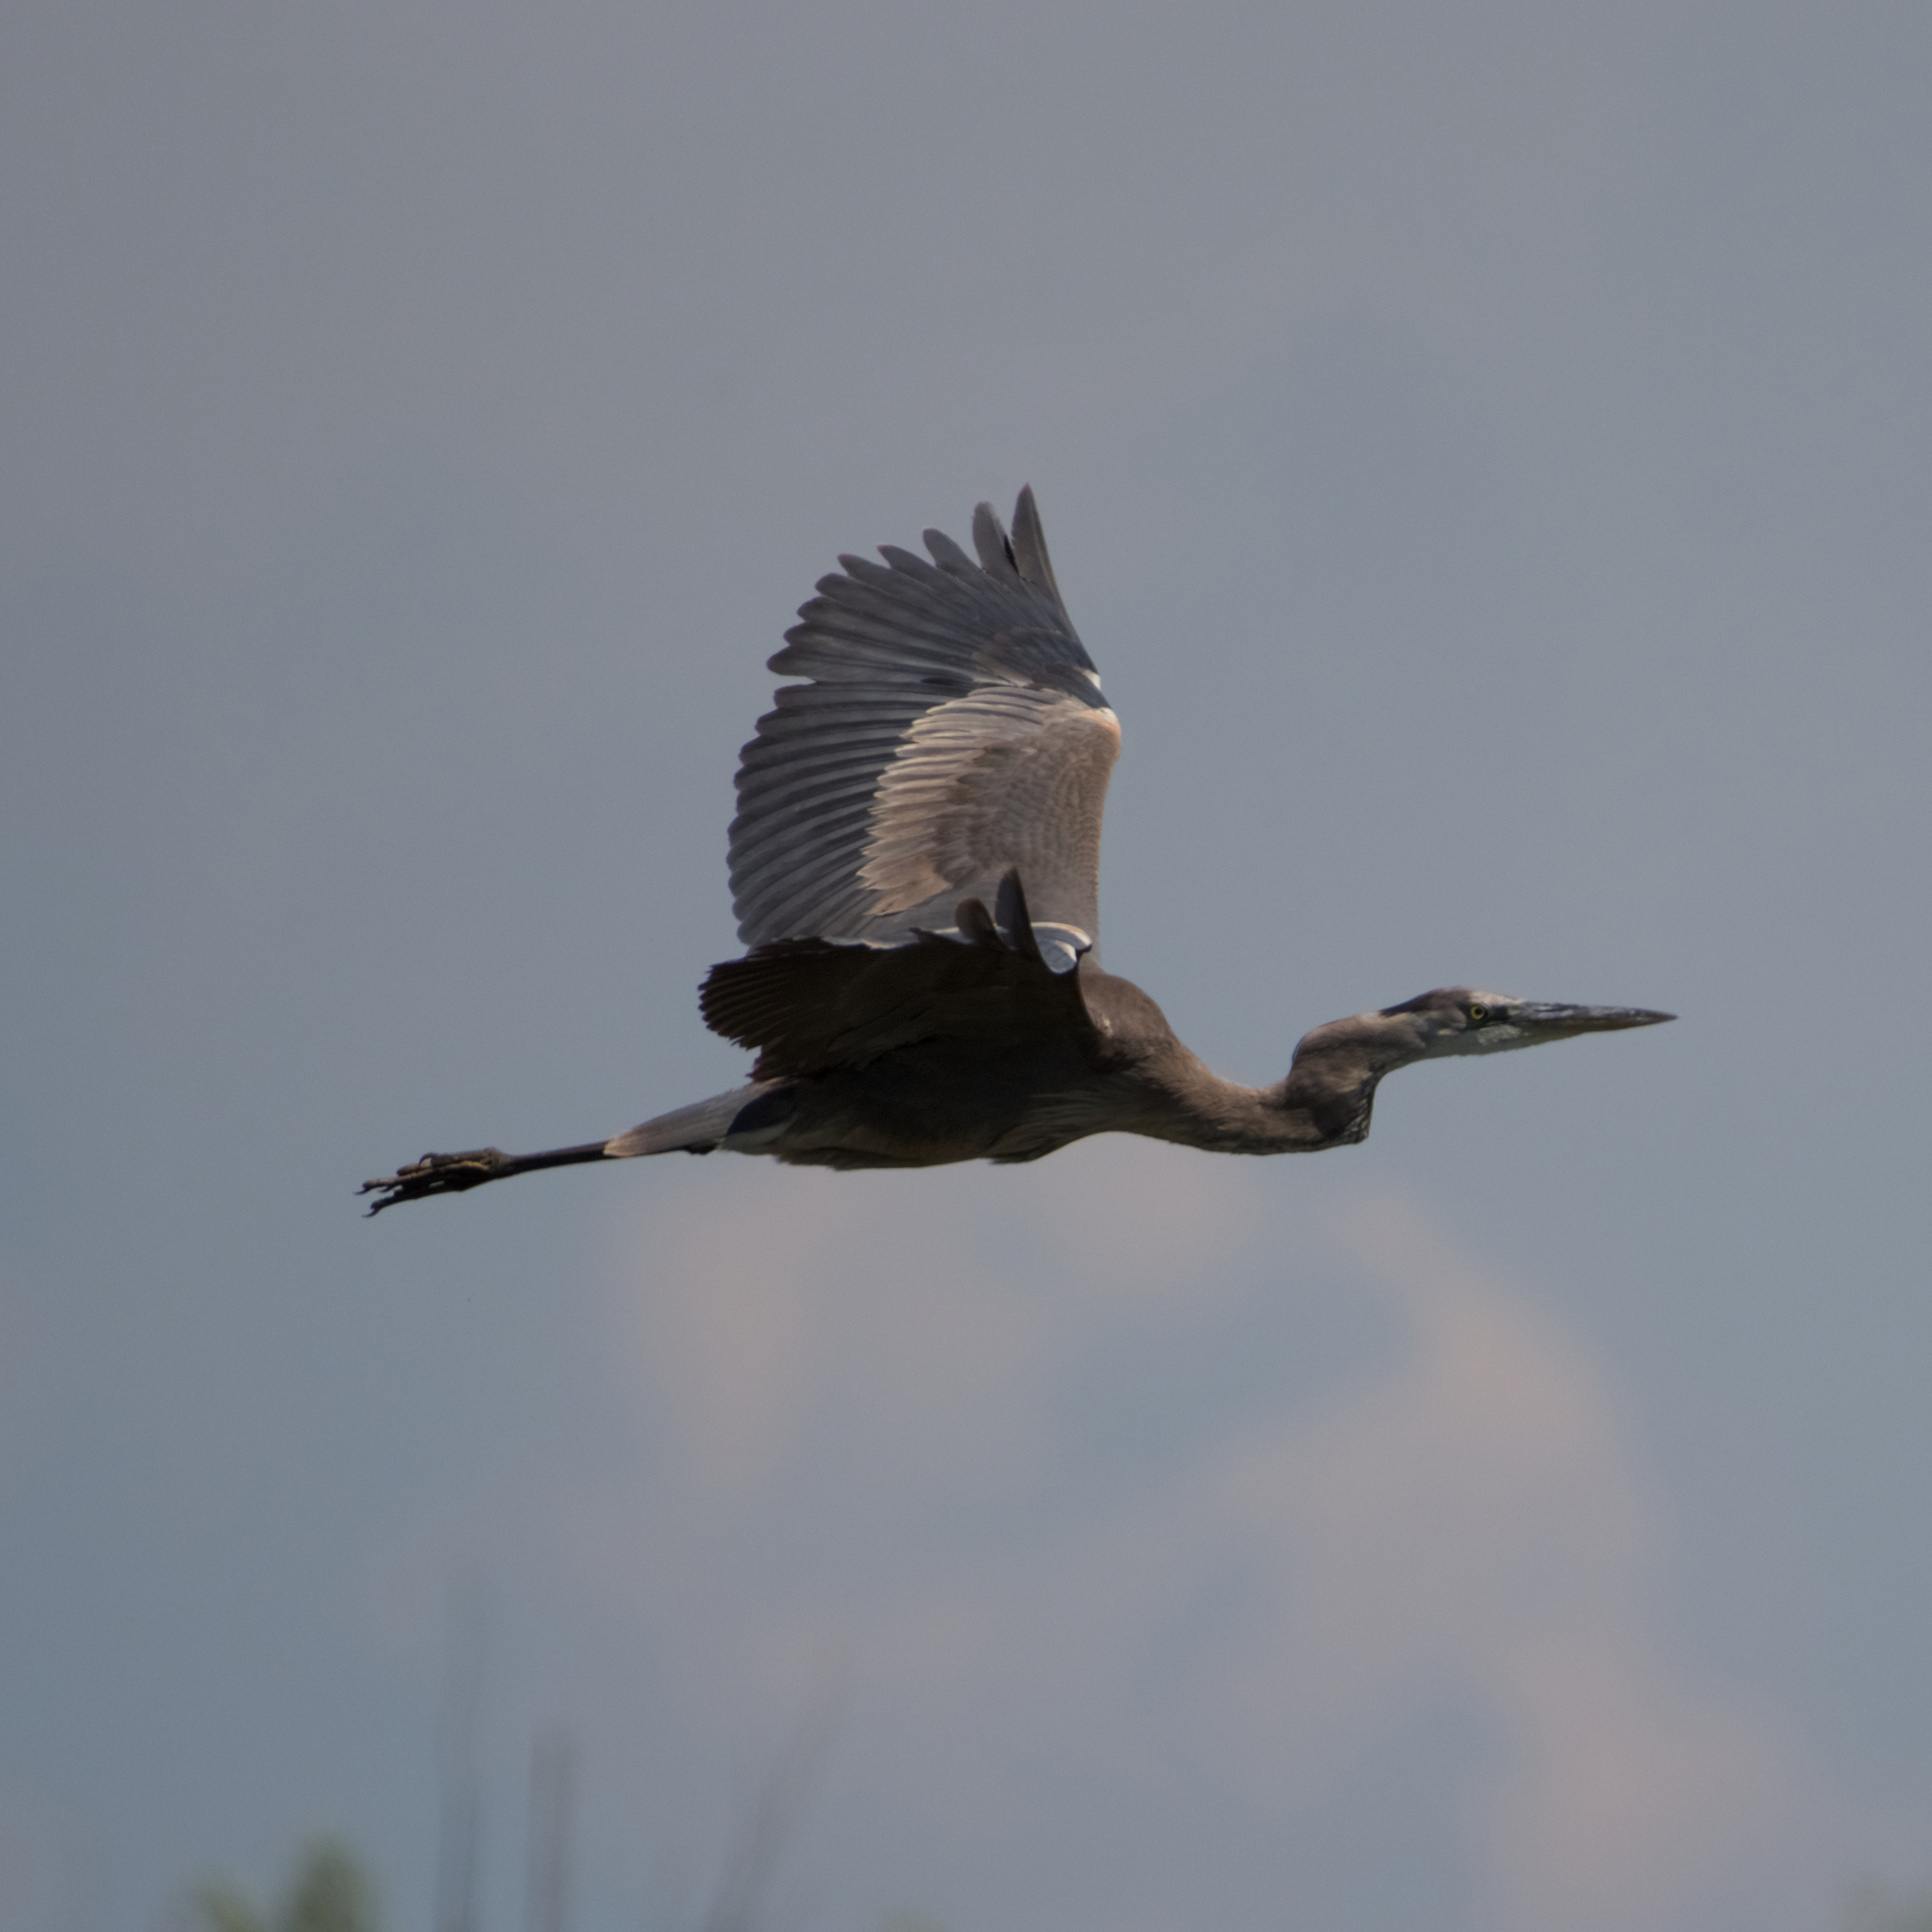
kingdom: Animalia
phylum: Chordata
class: Aves
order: Pelecaniformes
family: Ardeidae
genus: Ardea
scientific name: Ardea herodias
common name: Great blue heron
